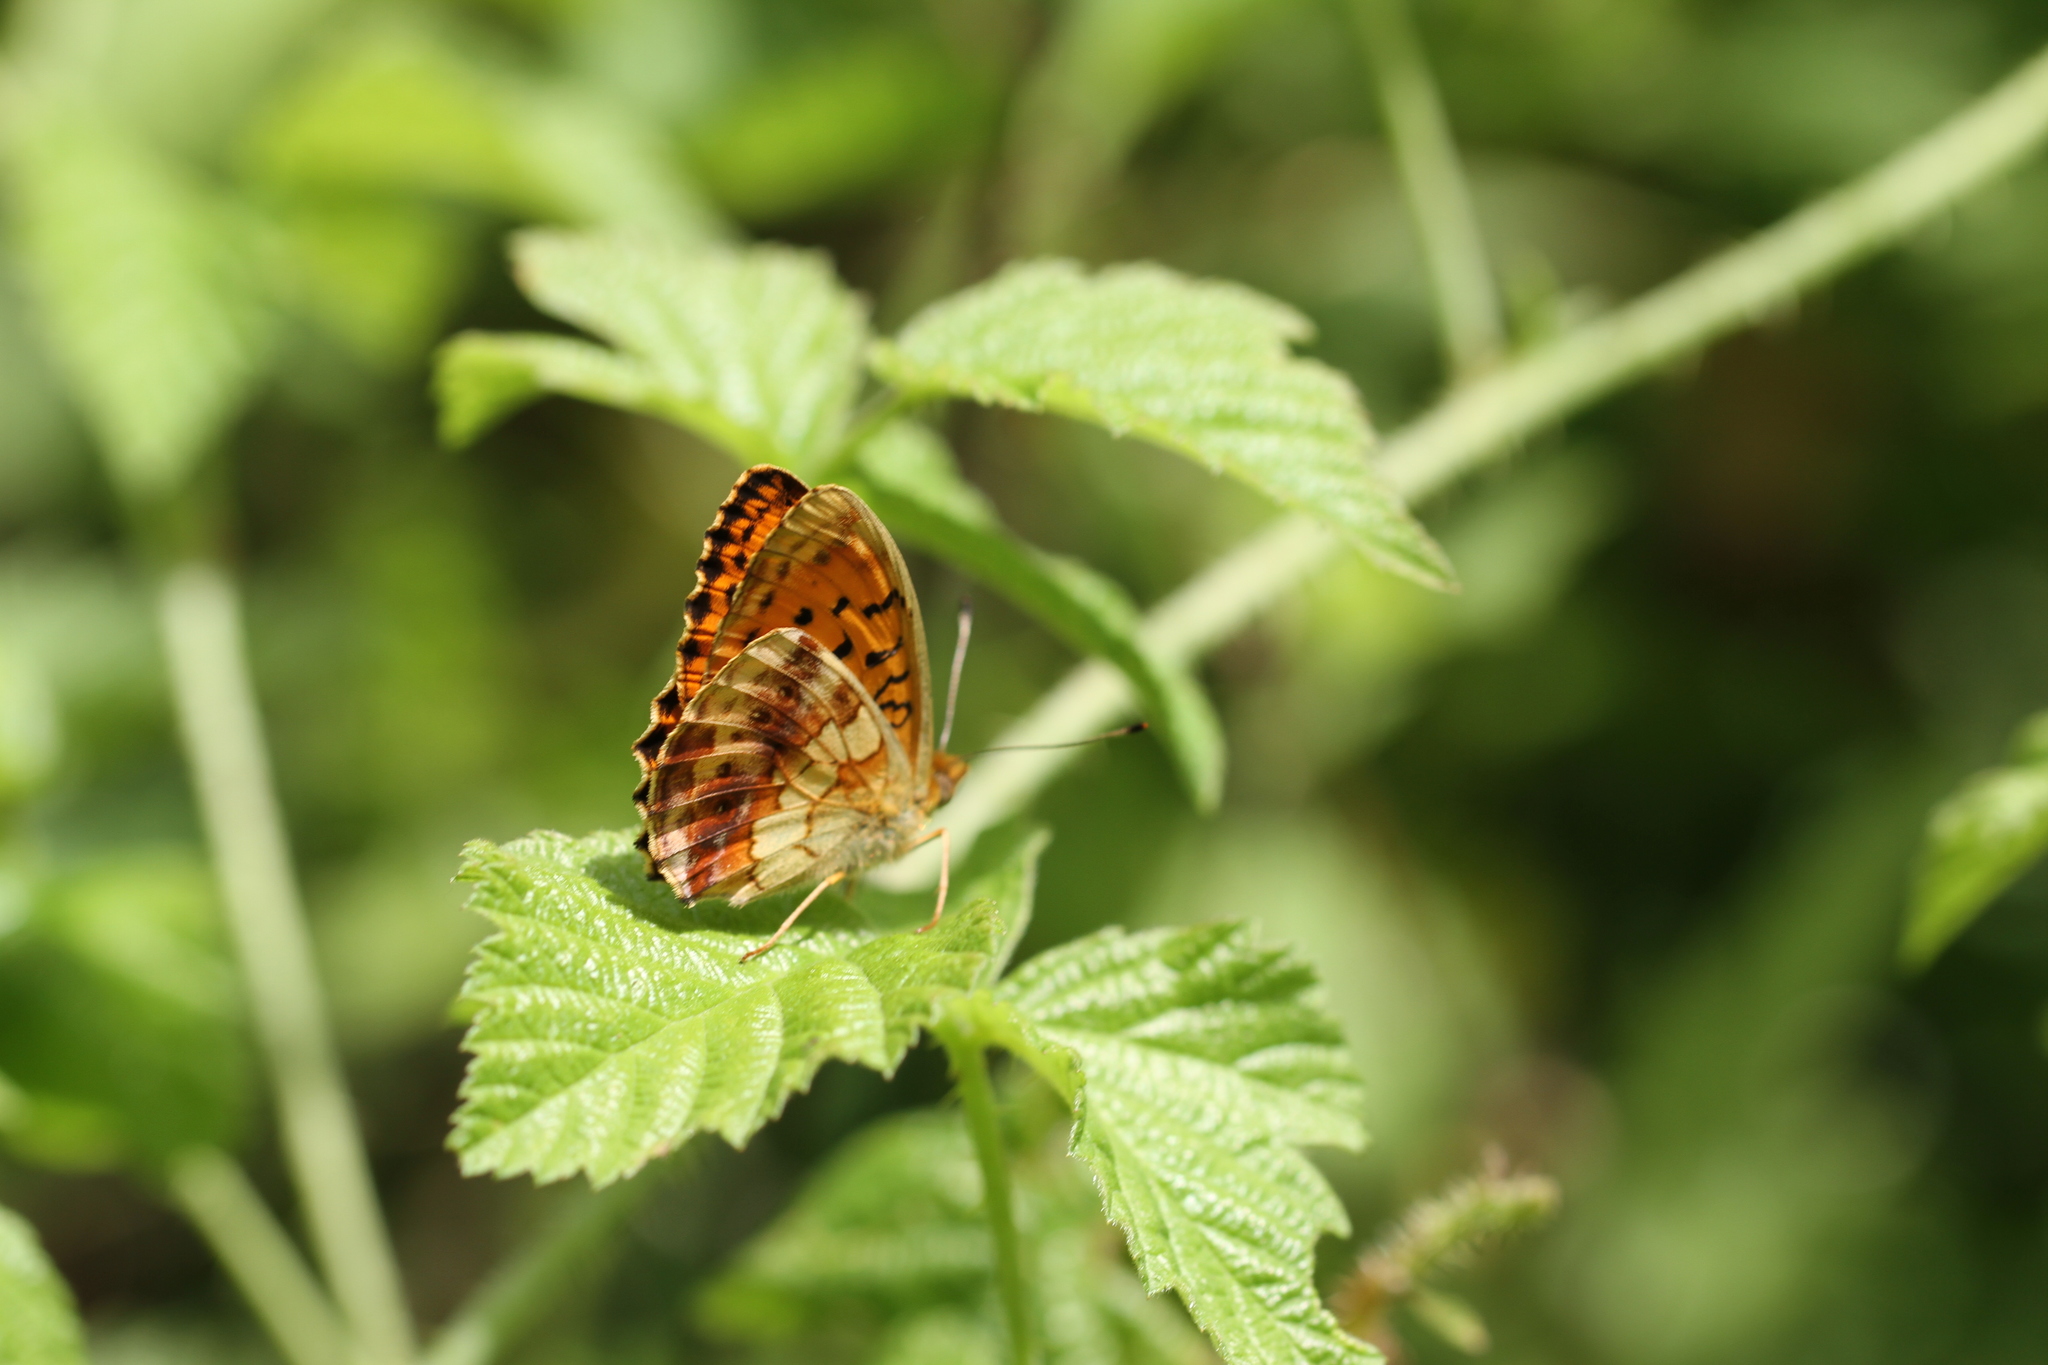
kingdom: Animalia
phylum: Arthropoda
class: Insecta
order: Lepidoptera
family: Nymphalidae
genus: Brenthis
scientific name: Brenthis daphne
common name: Marbled fritillary
